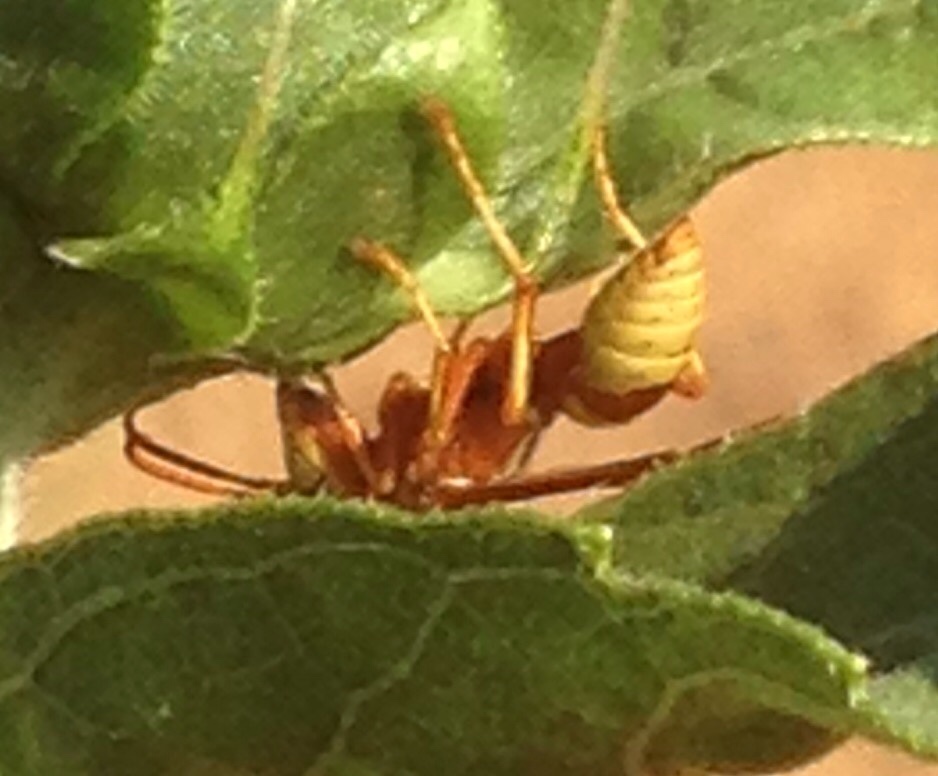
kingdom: Animalia
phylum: Arthropoda
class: Insecta
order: Hymenoptera
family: Eumenidae
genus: Polistes
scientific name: Polistes dorsalis
